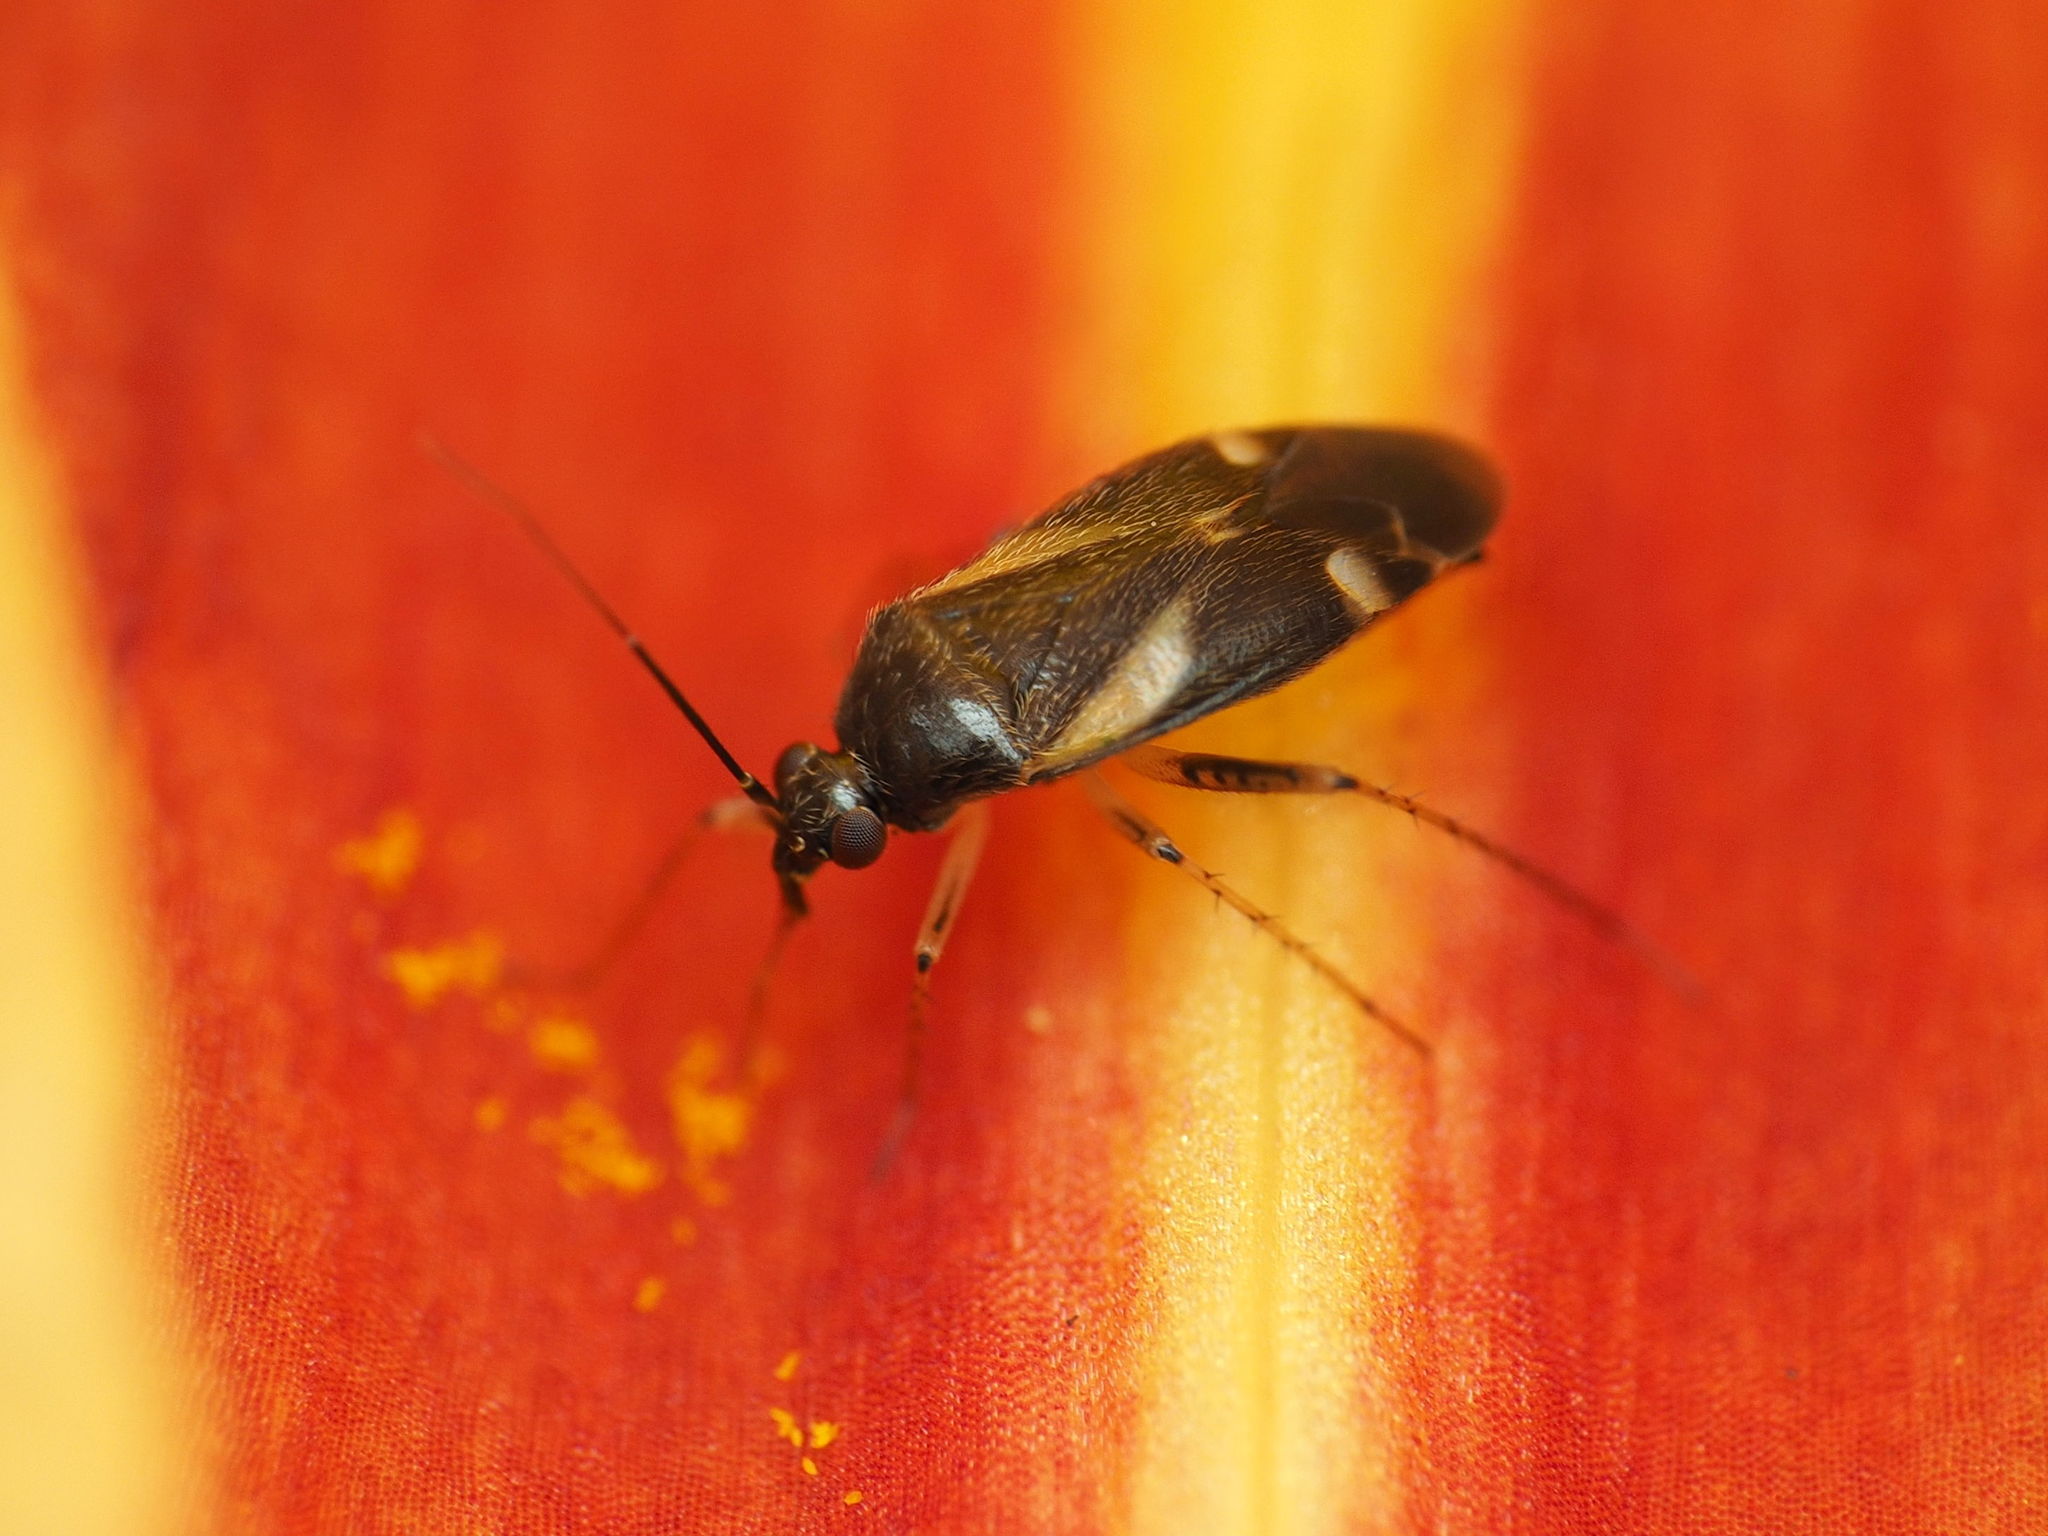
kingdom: Animalia
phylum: Arthropoda
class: Insecta
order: Hemiptera
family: Miridae
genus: Plagiognathus
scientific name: Plagiognathus obscurus
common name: Obscure plant bug
